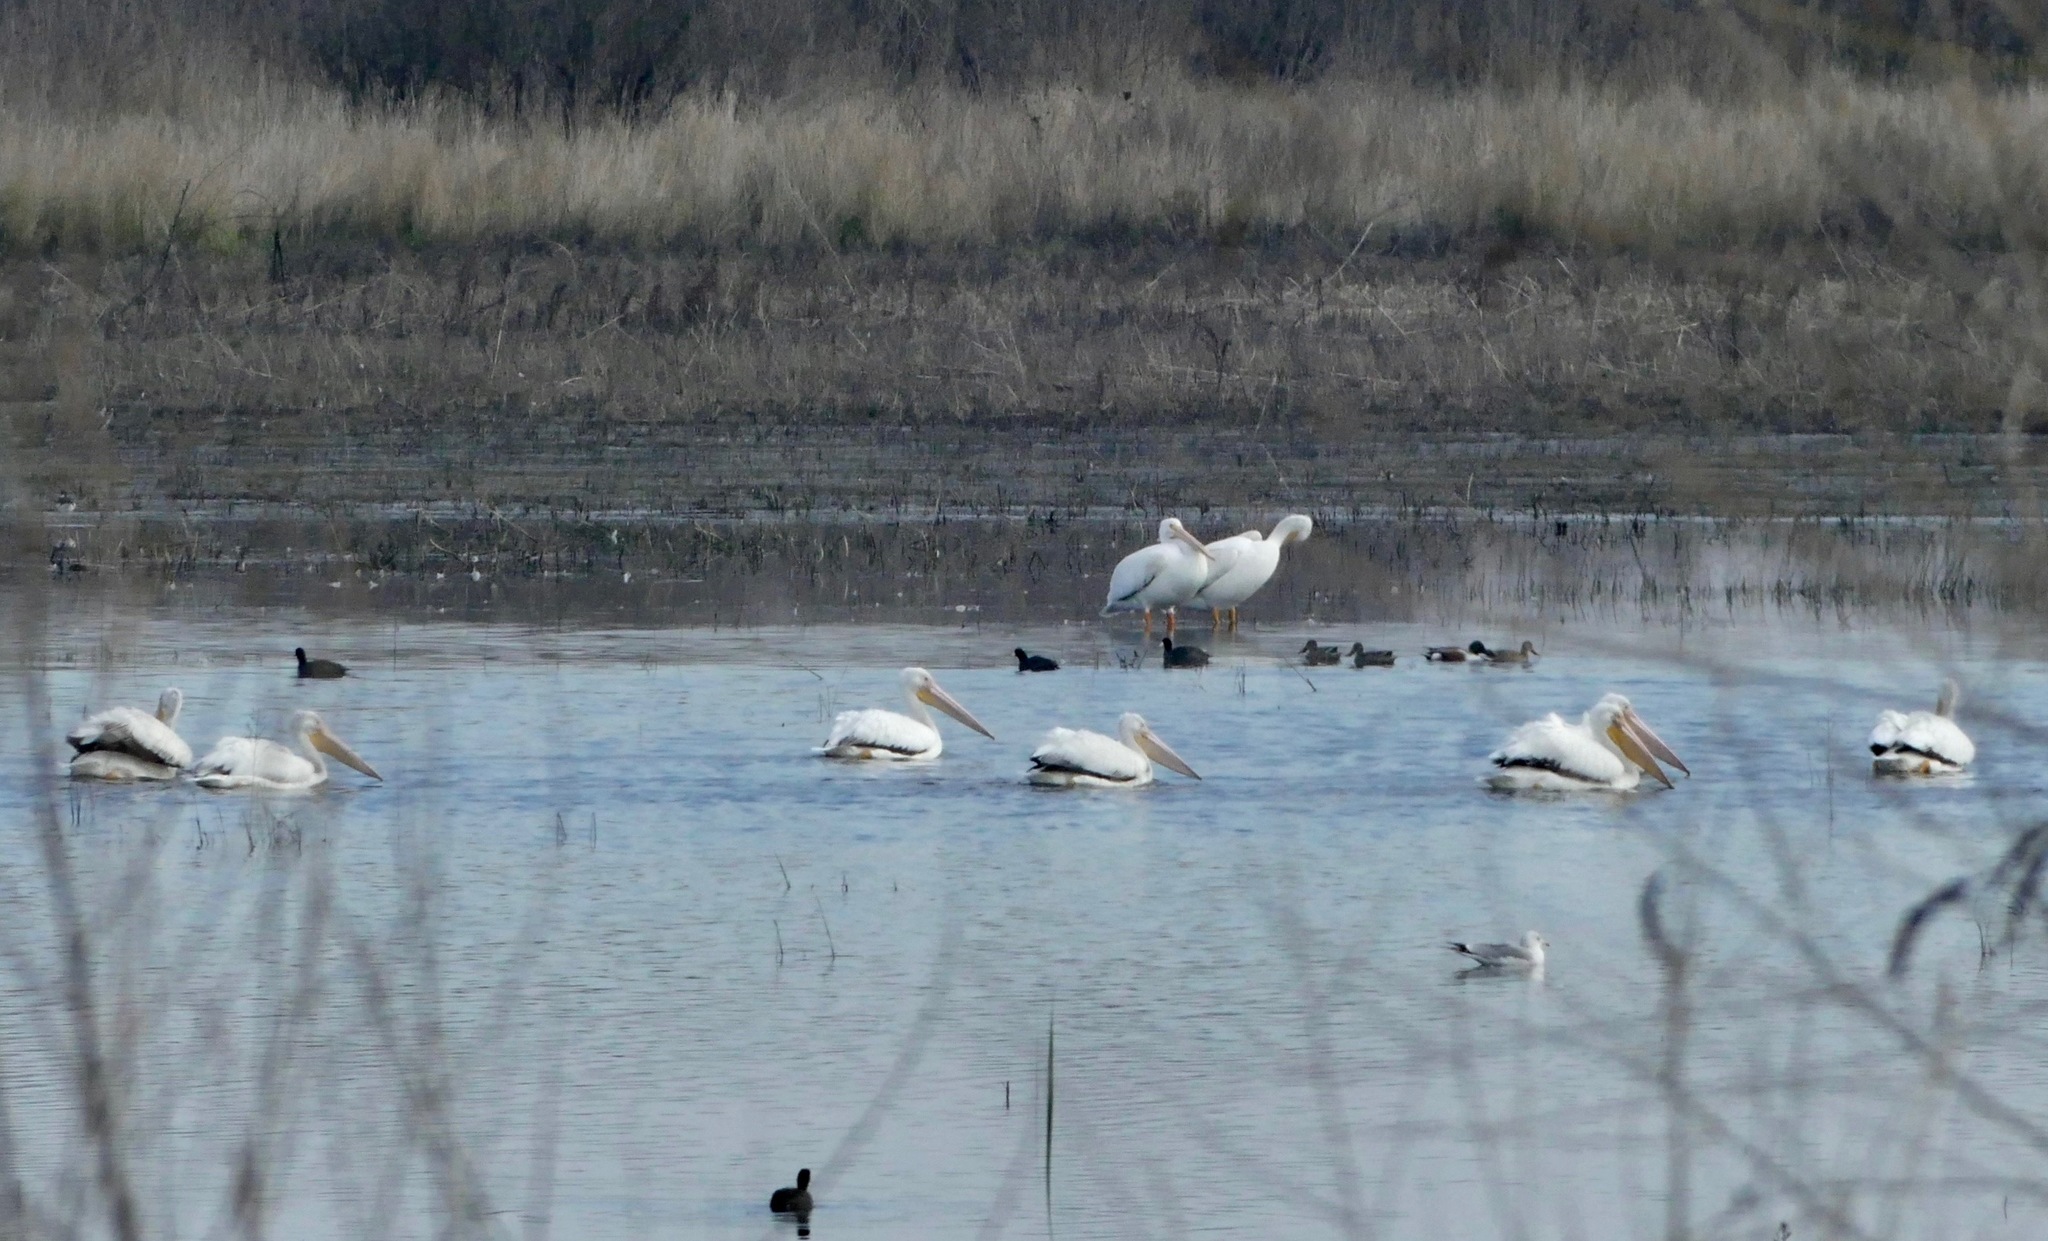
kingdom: Animalia
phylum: Chordata
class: Aves
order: Pelecaniformes
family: Pelecanidae
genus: Pelecanus
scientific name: Pelecanus erythrorhynchos
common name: American white pelican
